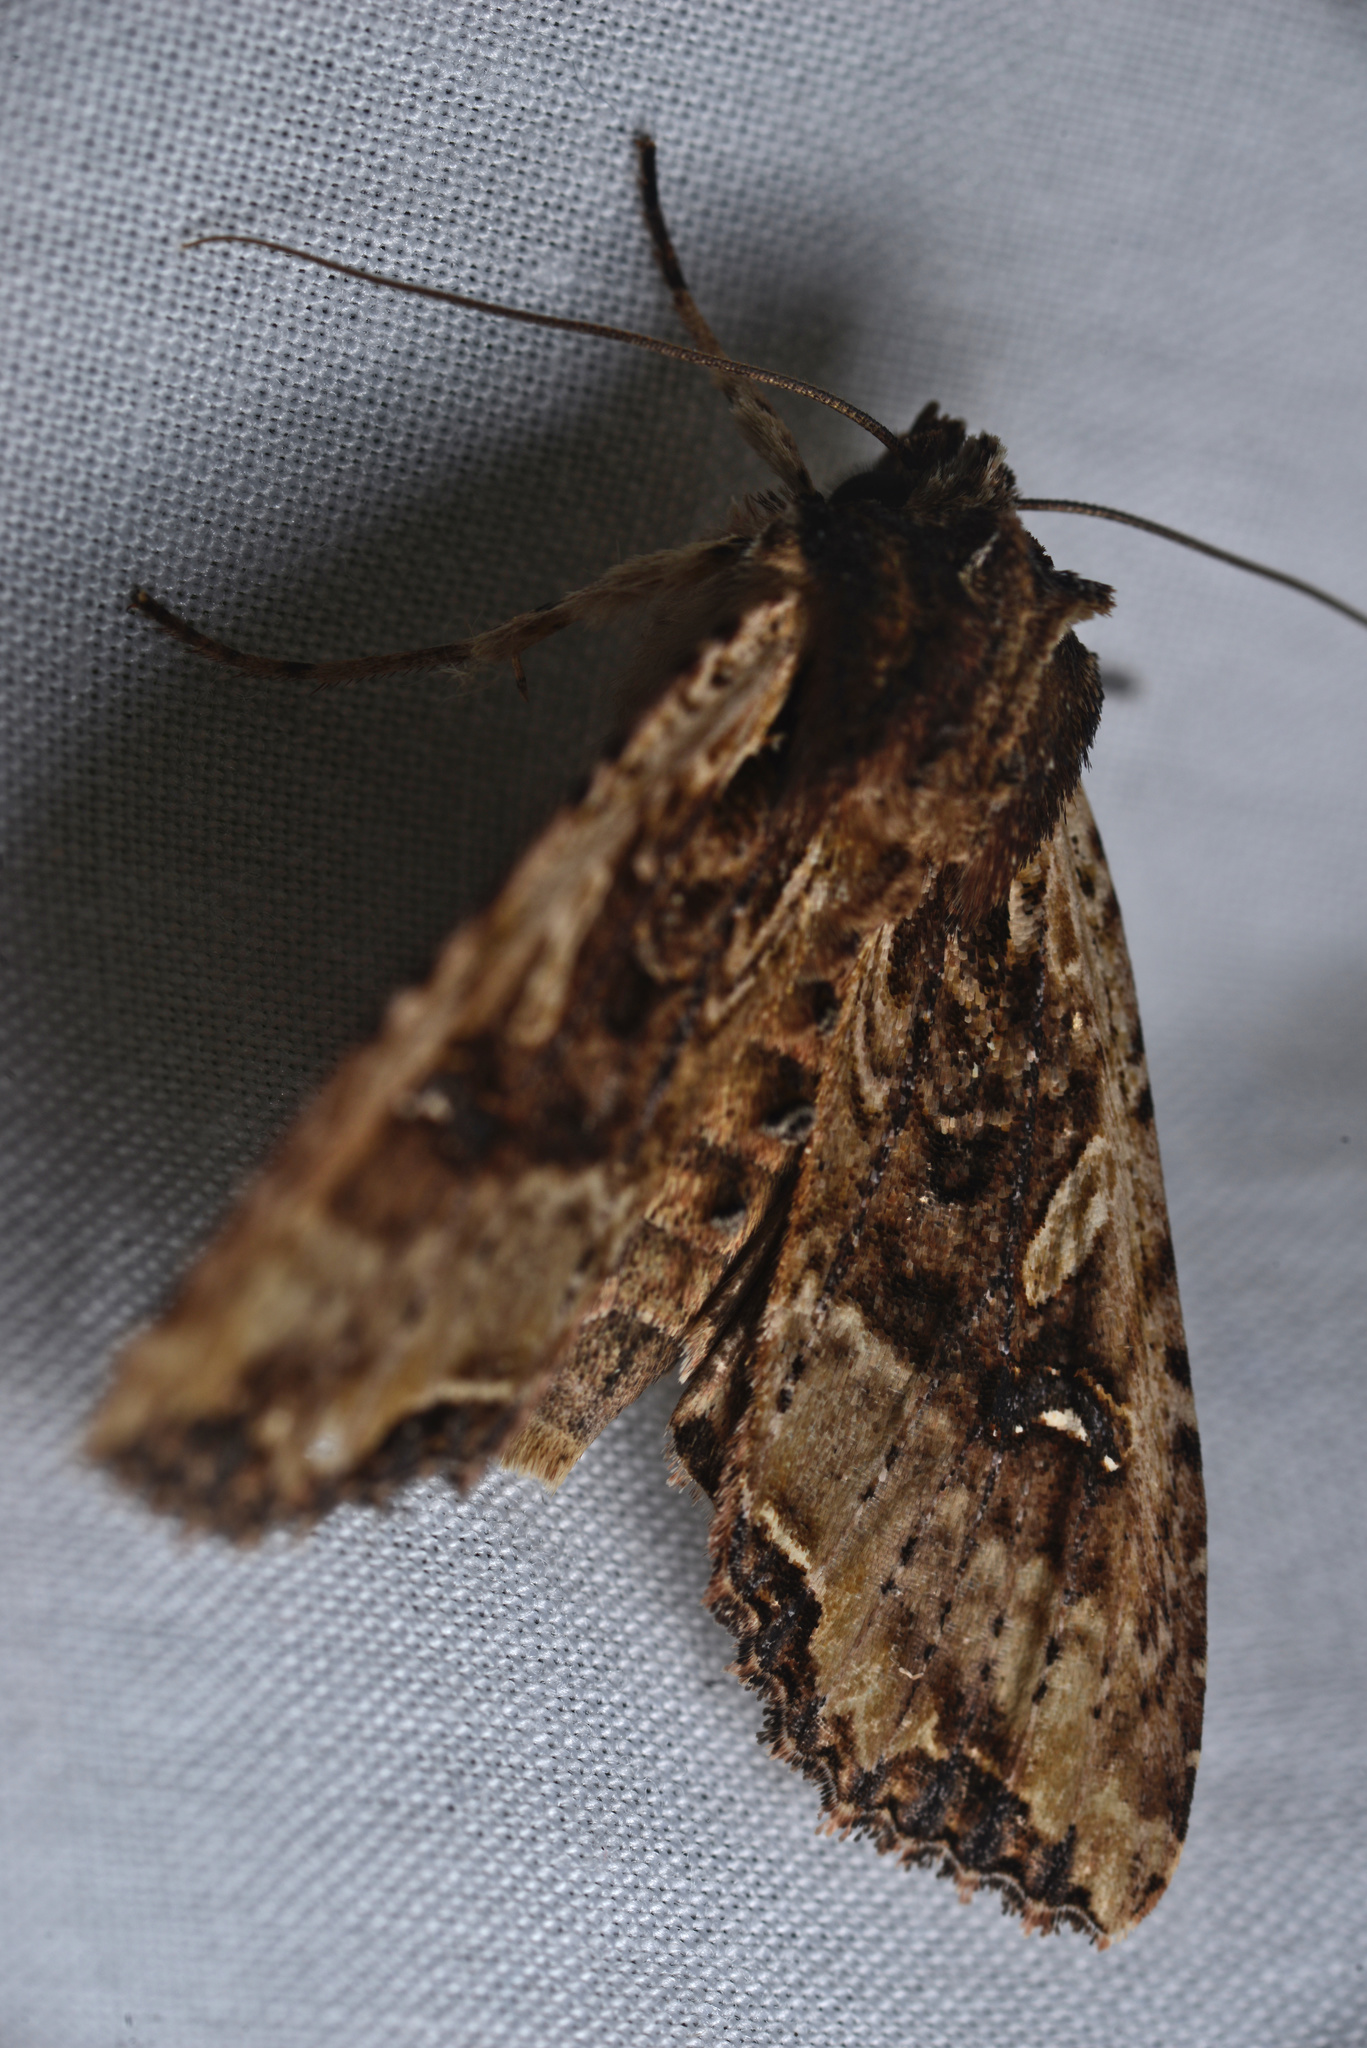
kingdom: Animalia
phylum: Arthropoda
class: Insecta
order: Lepidoptera
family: Noctuidae
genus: Meterana
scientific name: Meterana stipata
